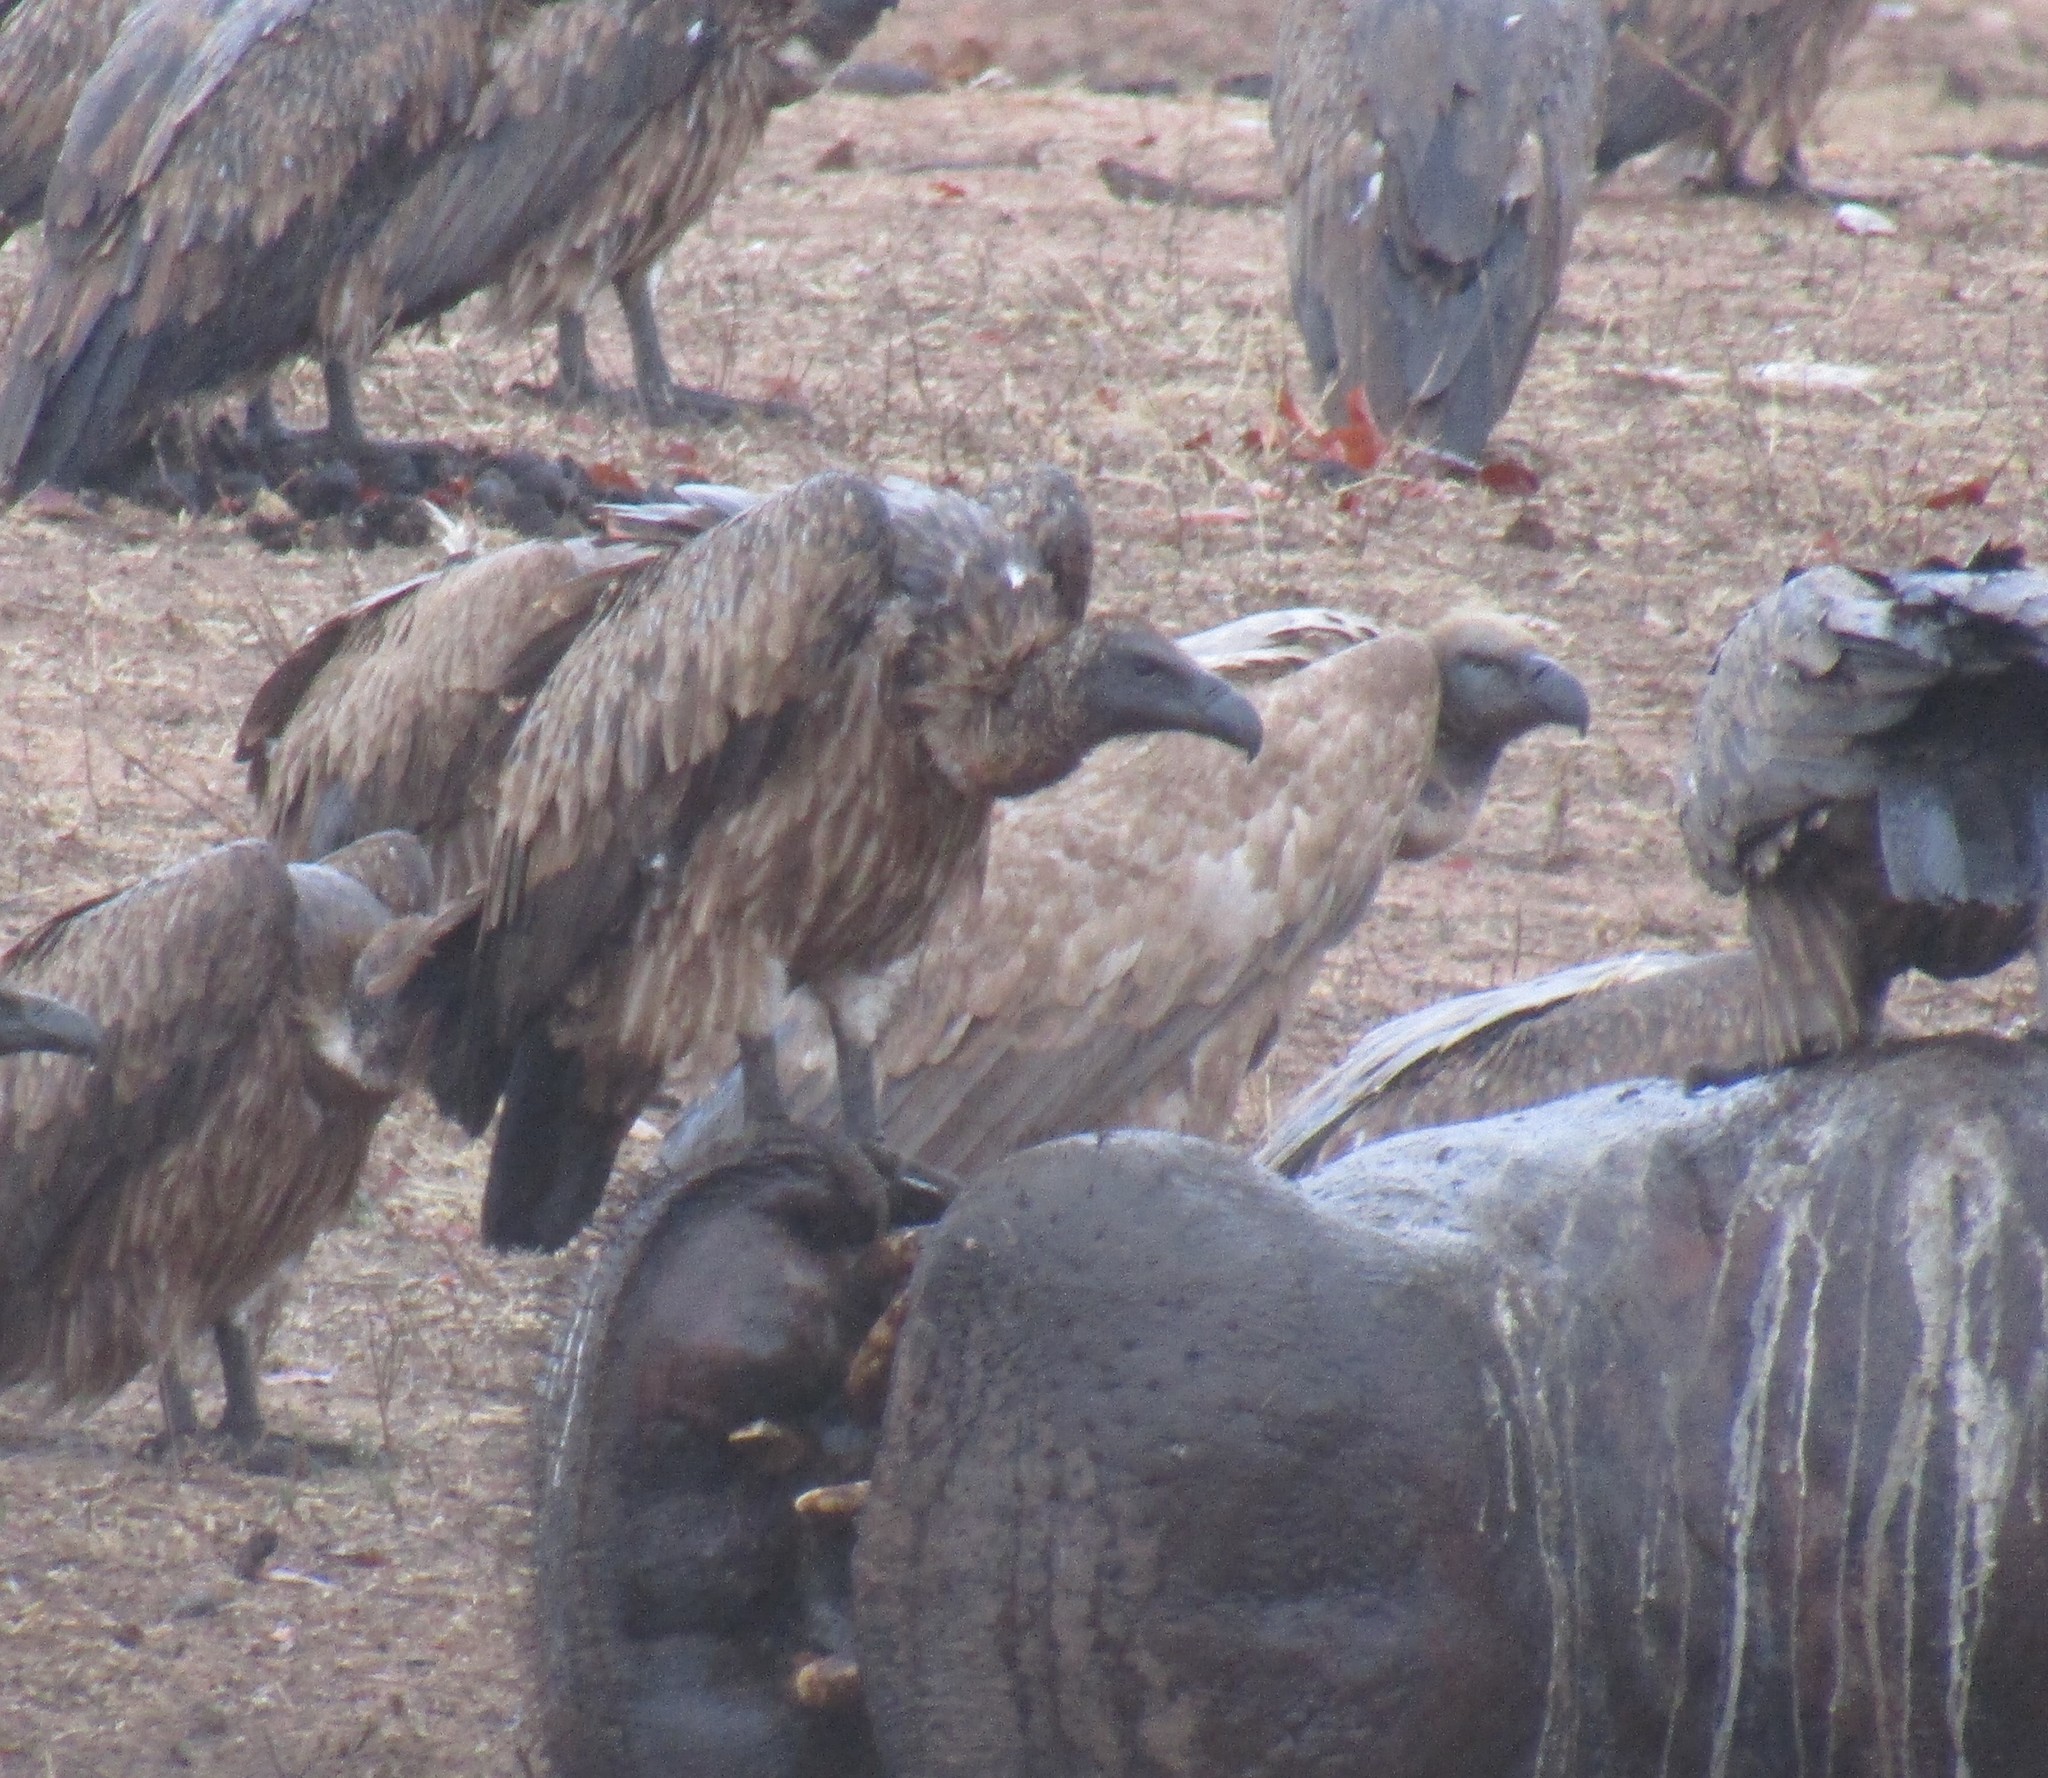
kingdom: Animalia
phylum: Chordata
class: Aves
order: Accipitriformes
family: Accipitridae
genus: Gyps
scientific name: Gyps africanus
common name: White-backed vulture
